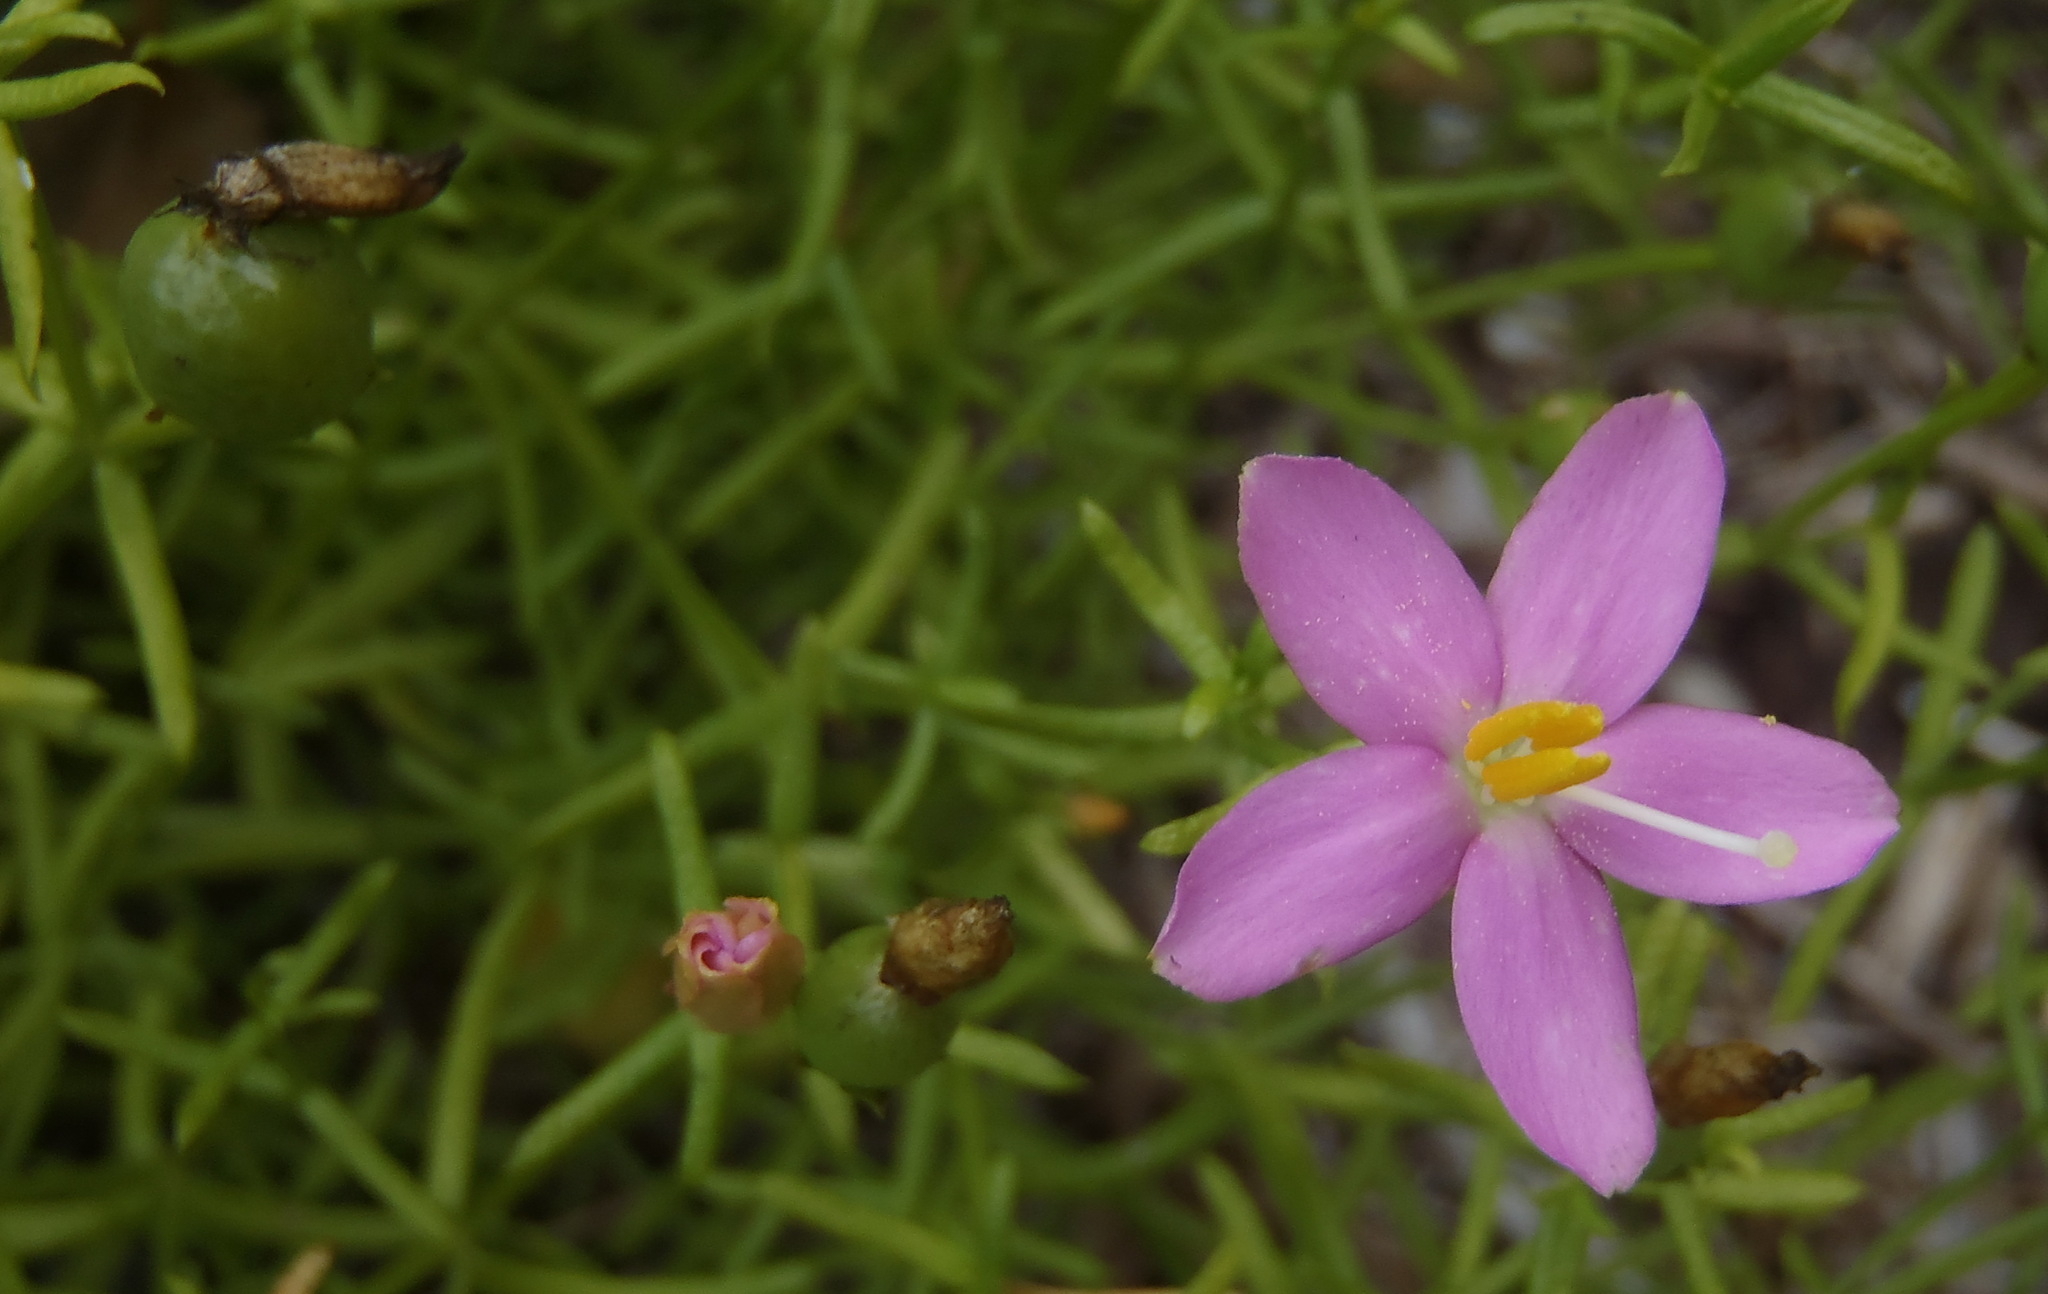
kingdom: Plantae
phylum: Tracheophyta
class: Magnoliopsida
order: Gentianales
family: Gentianaceae
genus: Chironia
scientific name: Chironia baccifera
